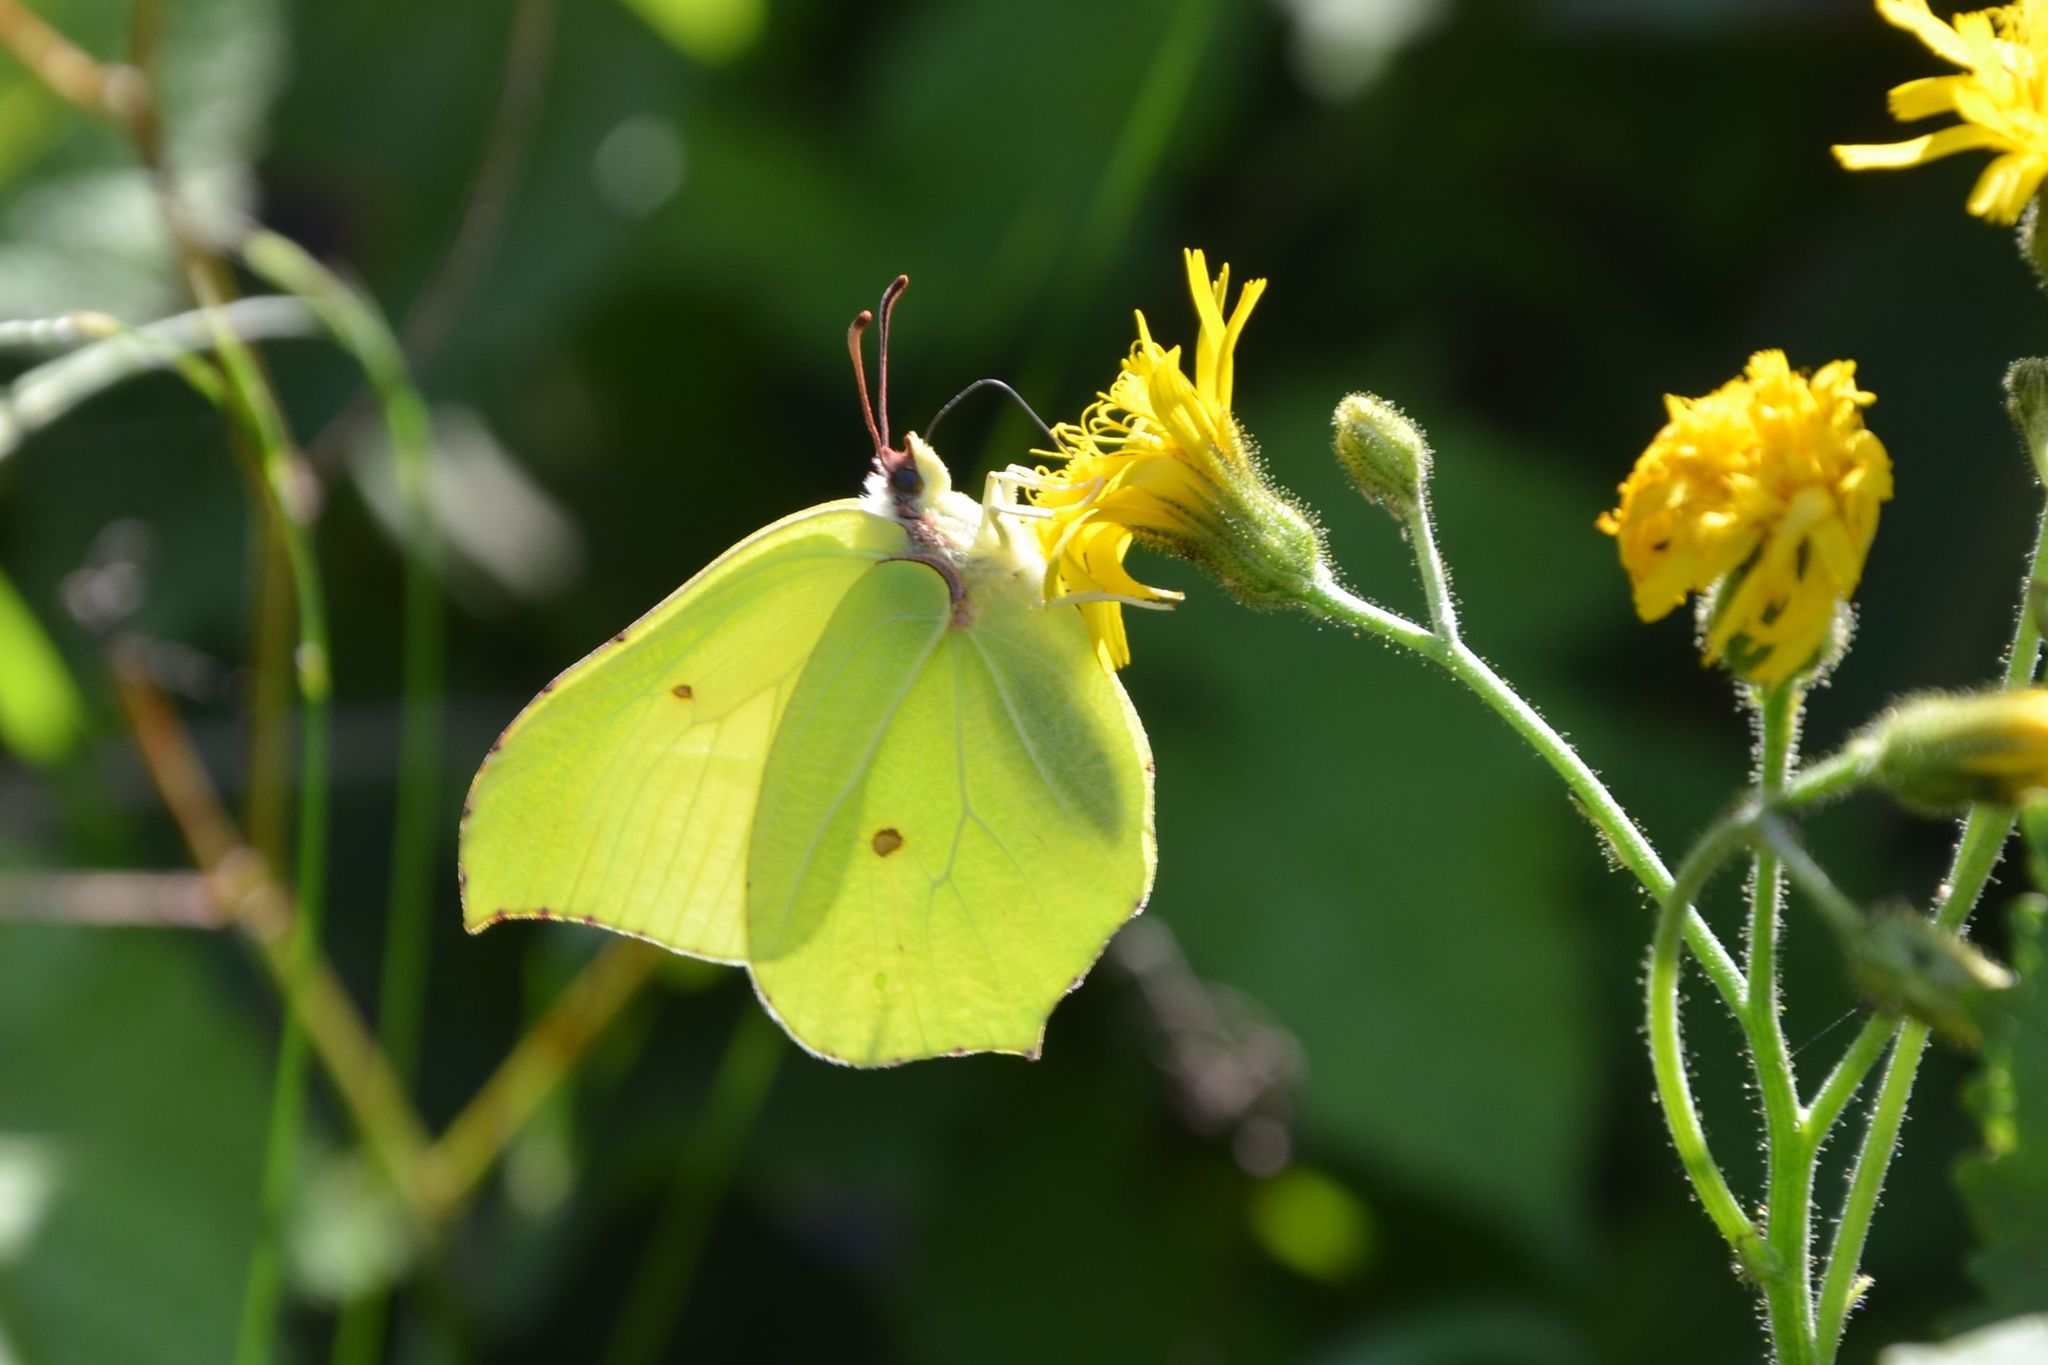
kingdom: Animalia
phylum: Arthropoda
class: Insecta
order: Lepidoptera
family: Pieridae
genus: Gonepteryx
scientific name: Gonepteryx rhamni
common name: Brimstone
